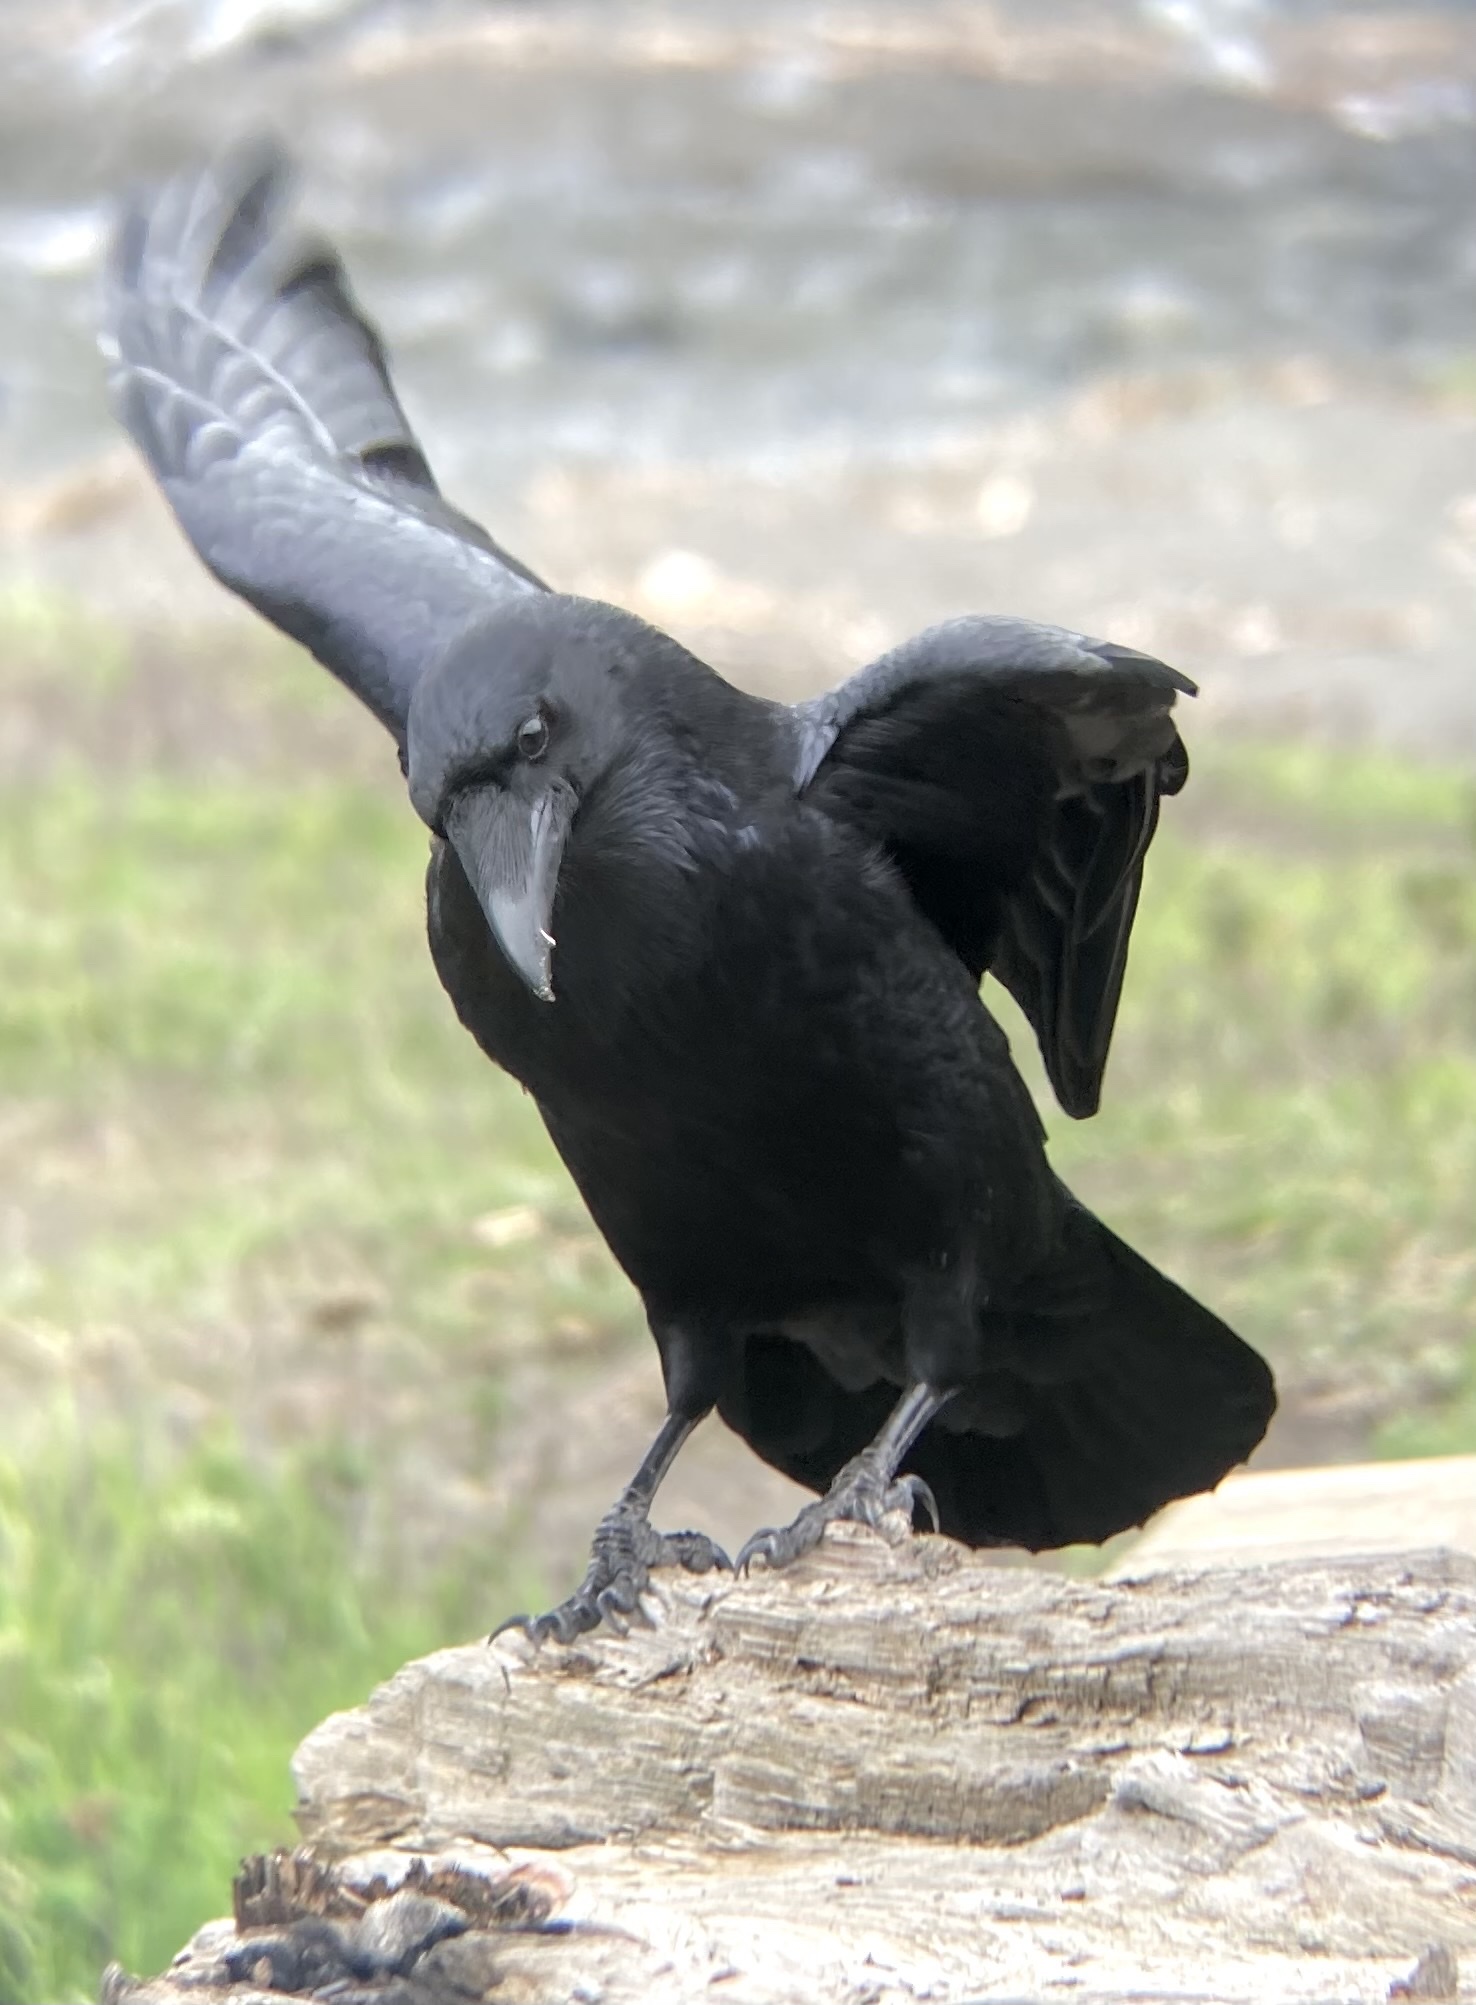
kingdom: Animalia
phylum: Chordata
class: Aves
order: Passeriformes
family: Corvidae
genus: Corvus
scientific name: Corvus corax
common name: Common raven
